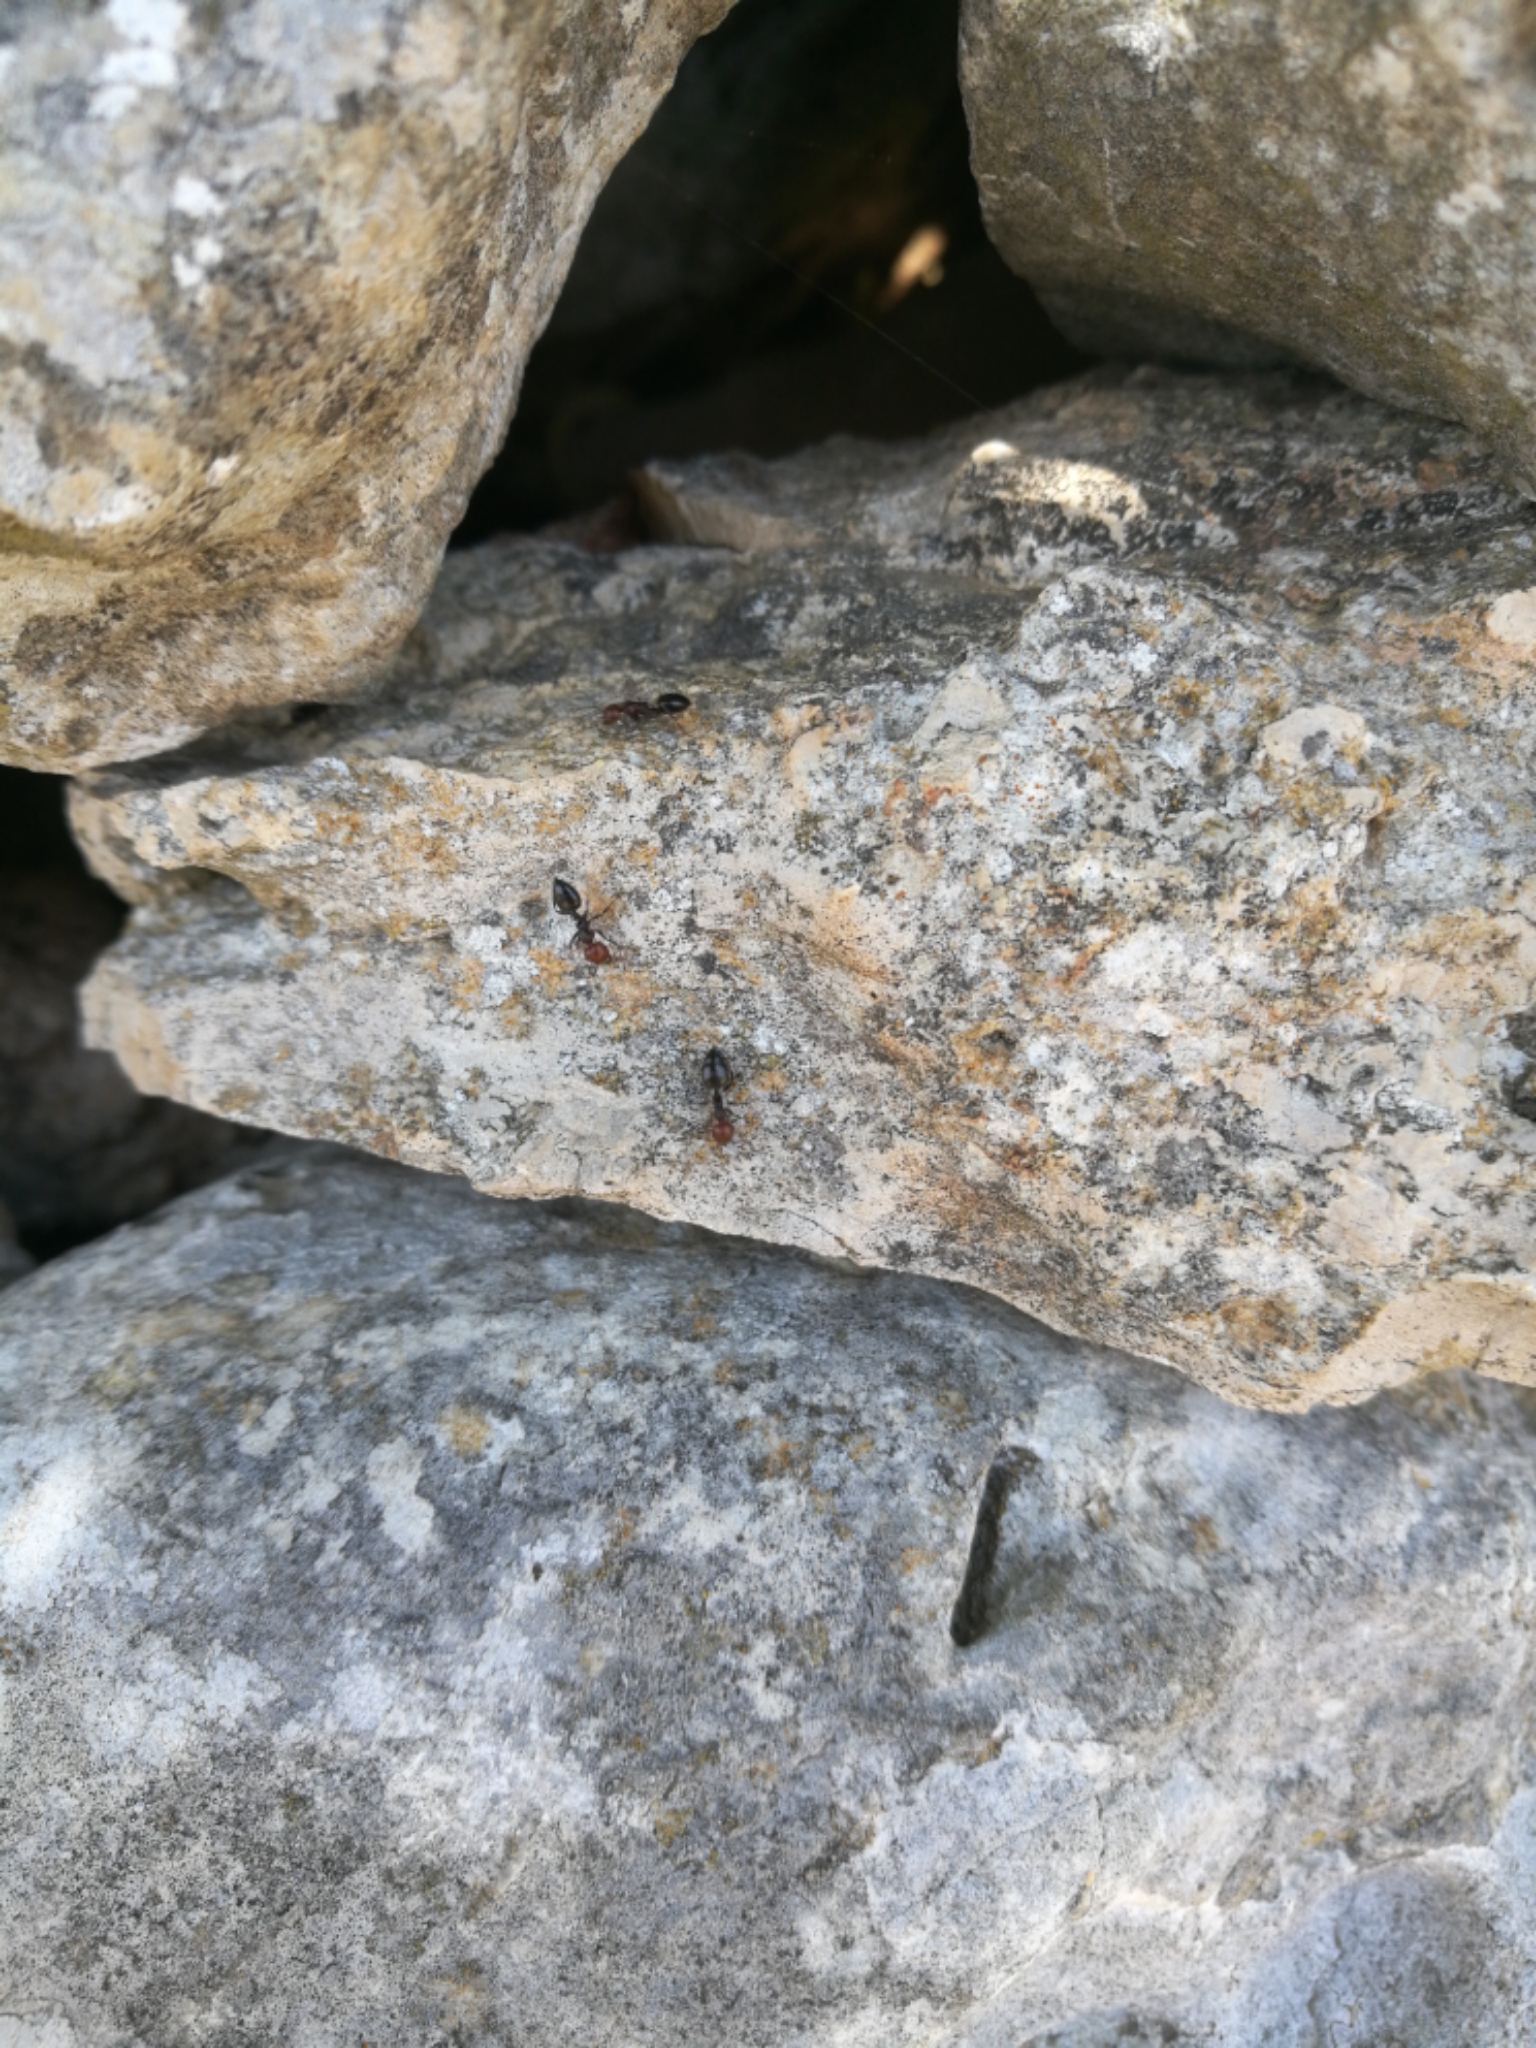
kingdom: Animalia
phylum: Arthropoda
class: Insecta
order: Hymenoptera
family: Formicidae
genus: Crematogaster
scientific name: Crematogaster scutellaris
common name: Fourmi du liège
